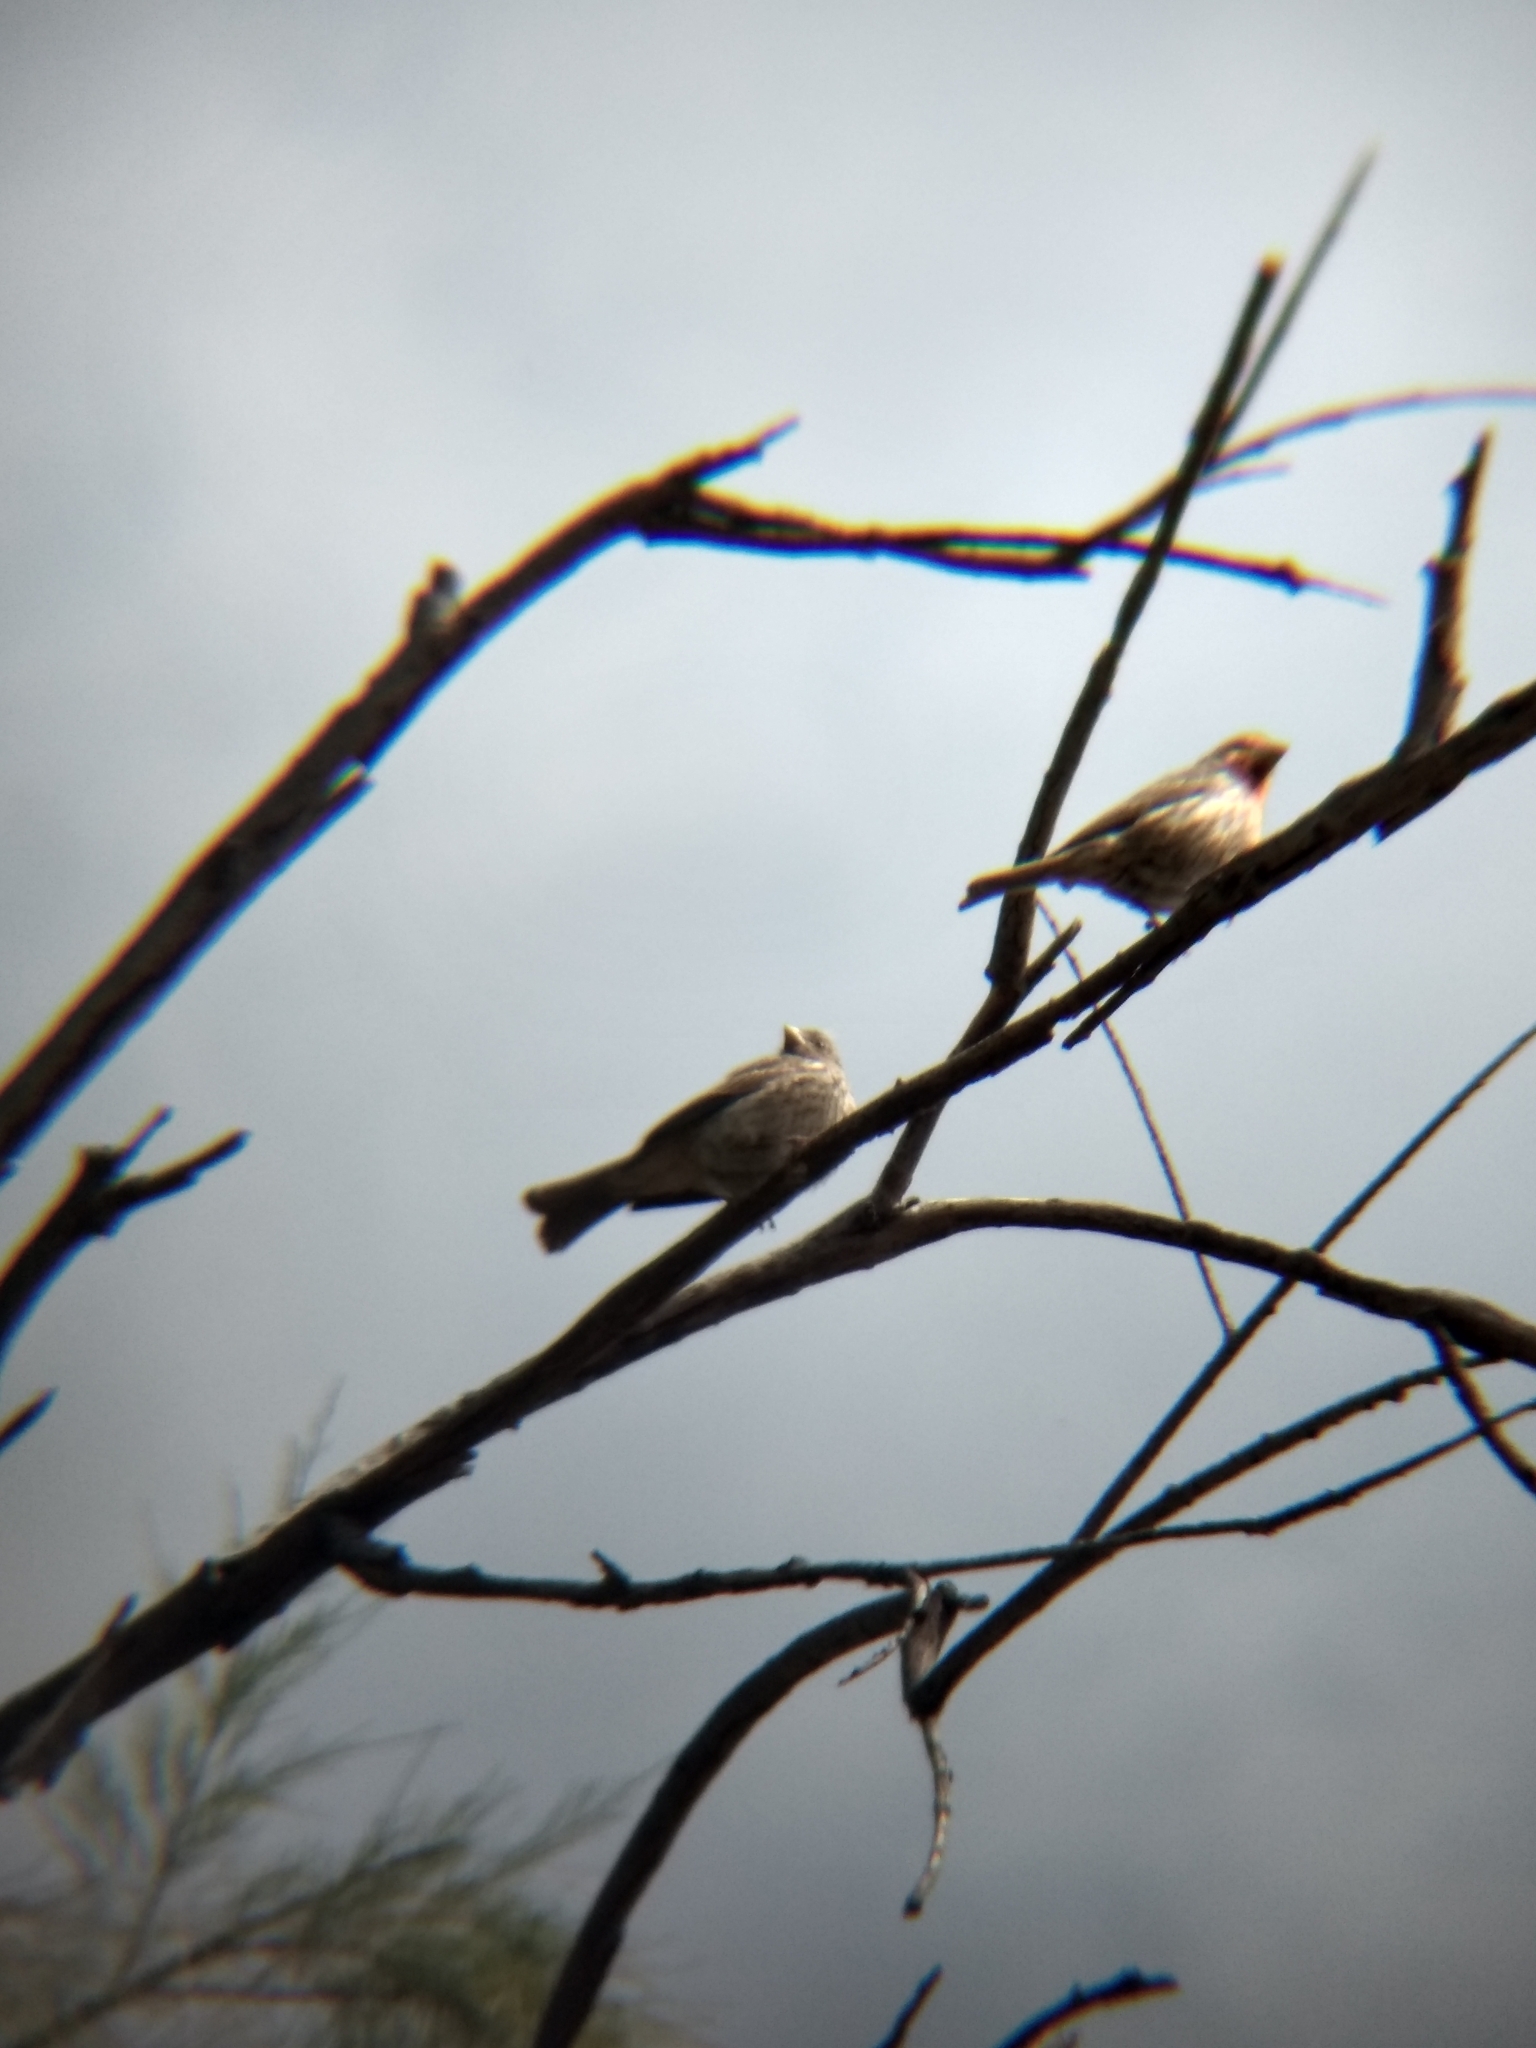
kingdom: Animalia
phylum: Chordata
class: Aves
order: Passeriformes
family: Fringillidae
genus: Haemorhous
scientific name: Haemorhous mexicanus
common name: House finch
